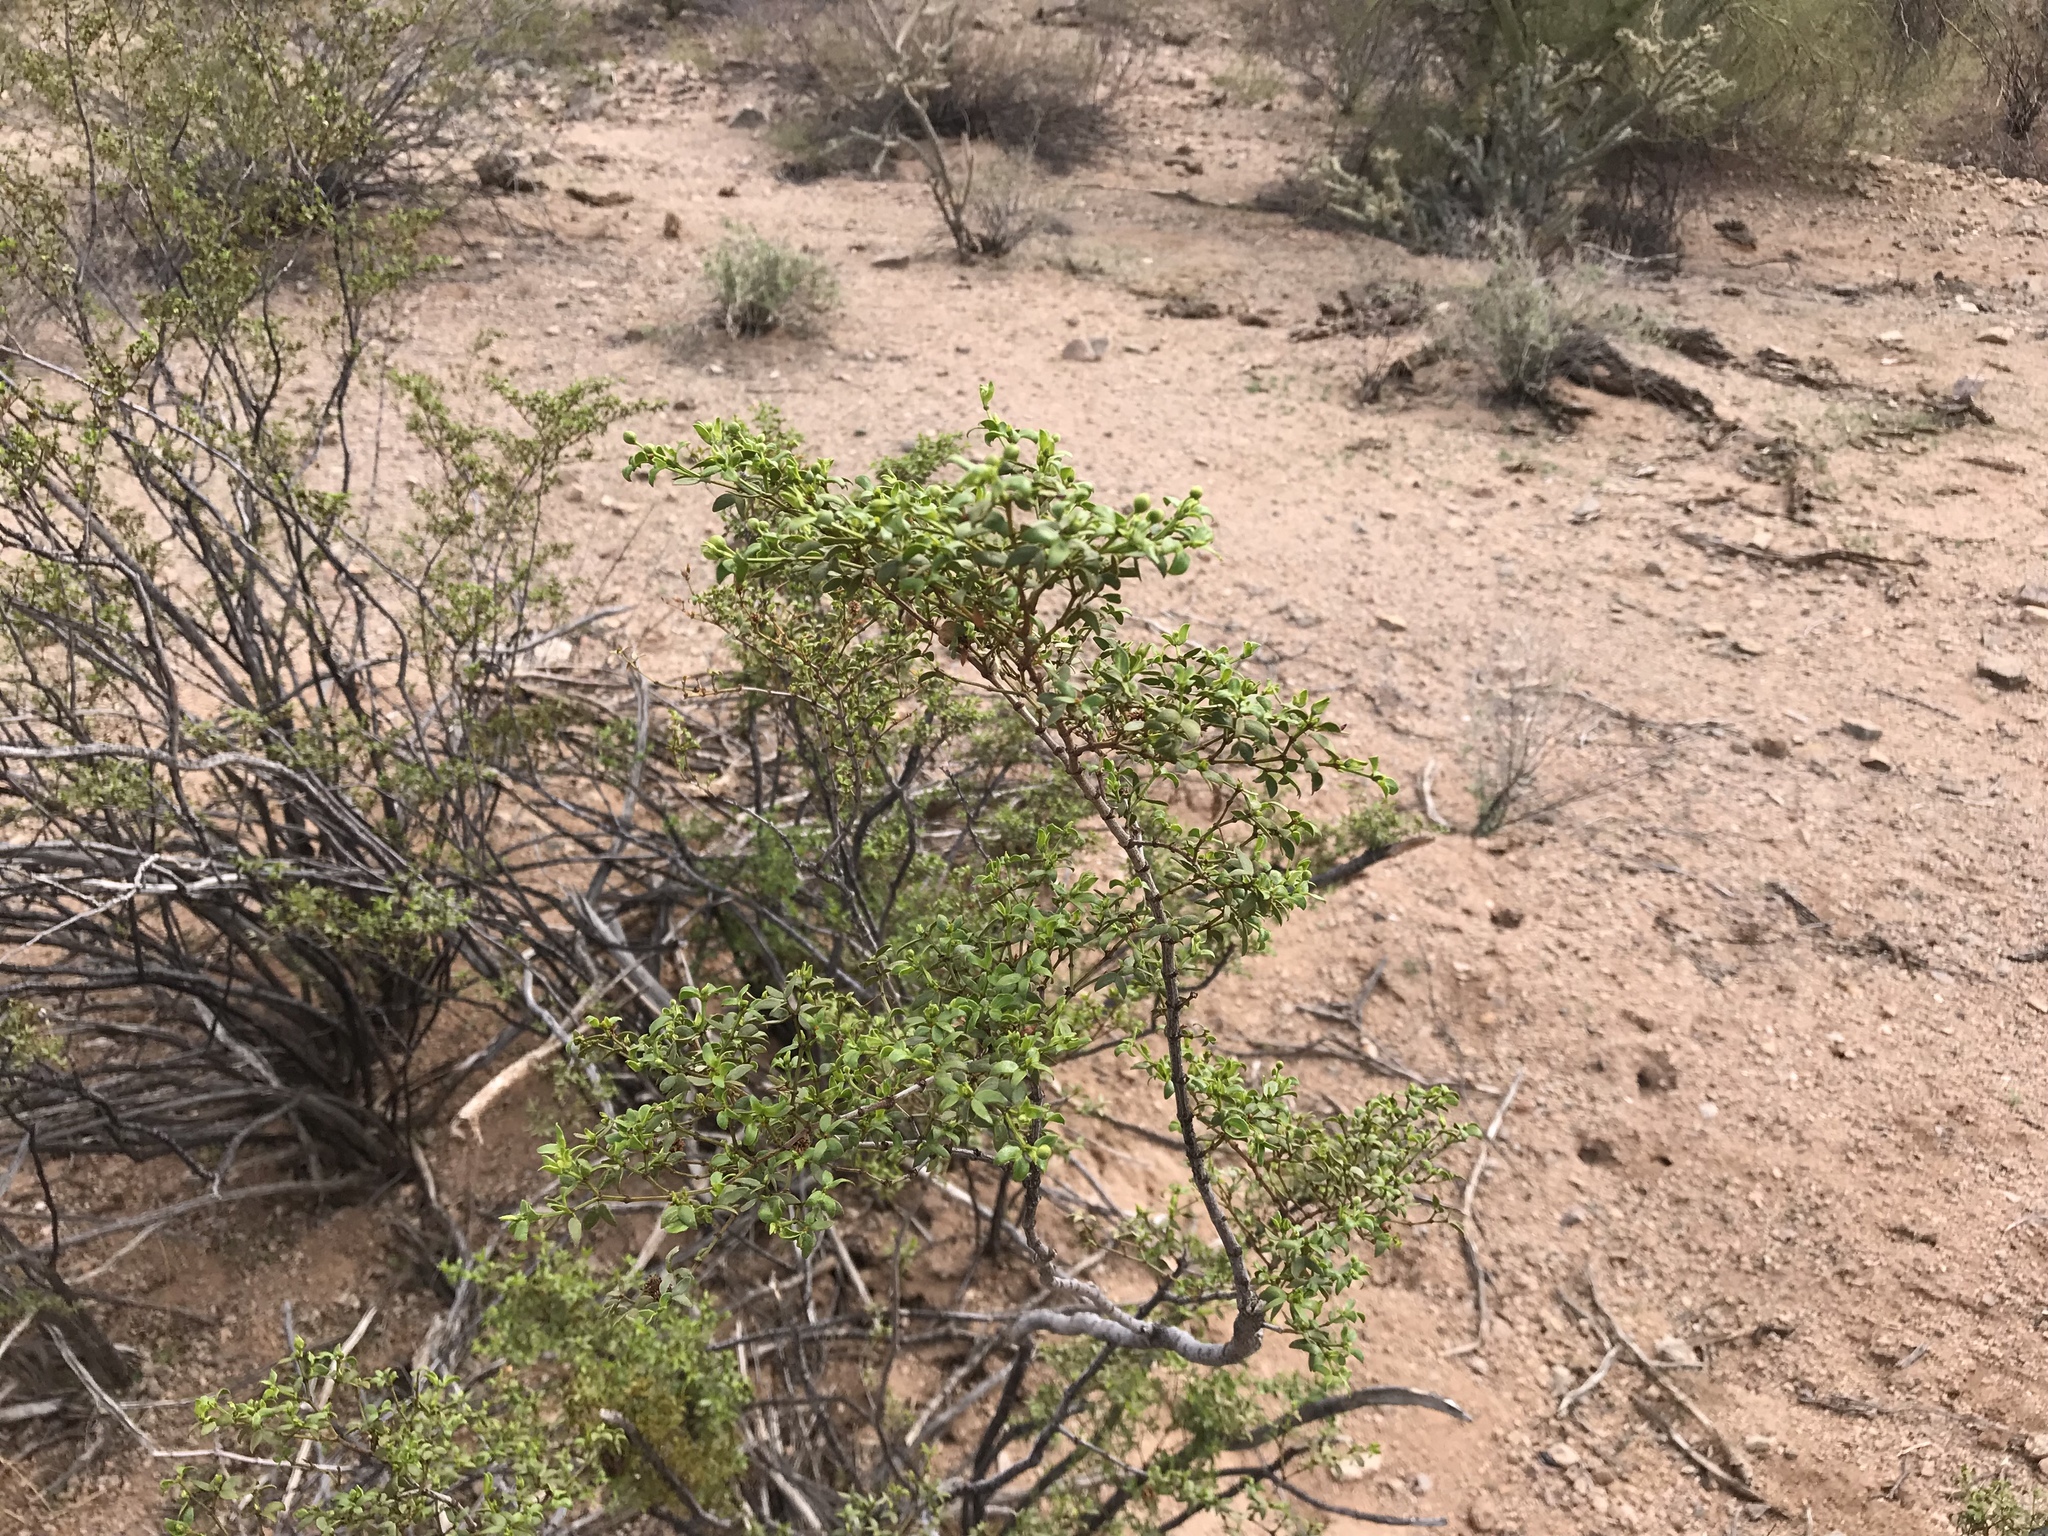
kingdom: Plantae
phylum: Tracheophyta
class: Magnoliopsida
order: Zygophyllales
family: Zygophyllaceae
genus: Larrea
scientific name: Larrea tridentata
